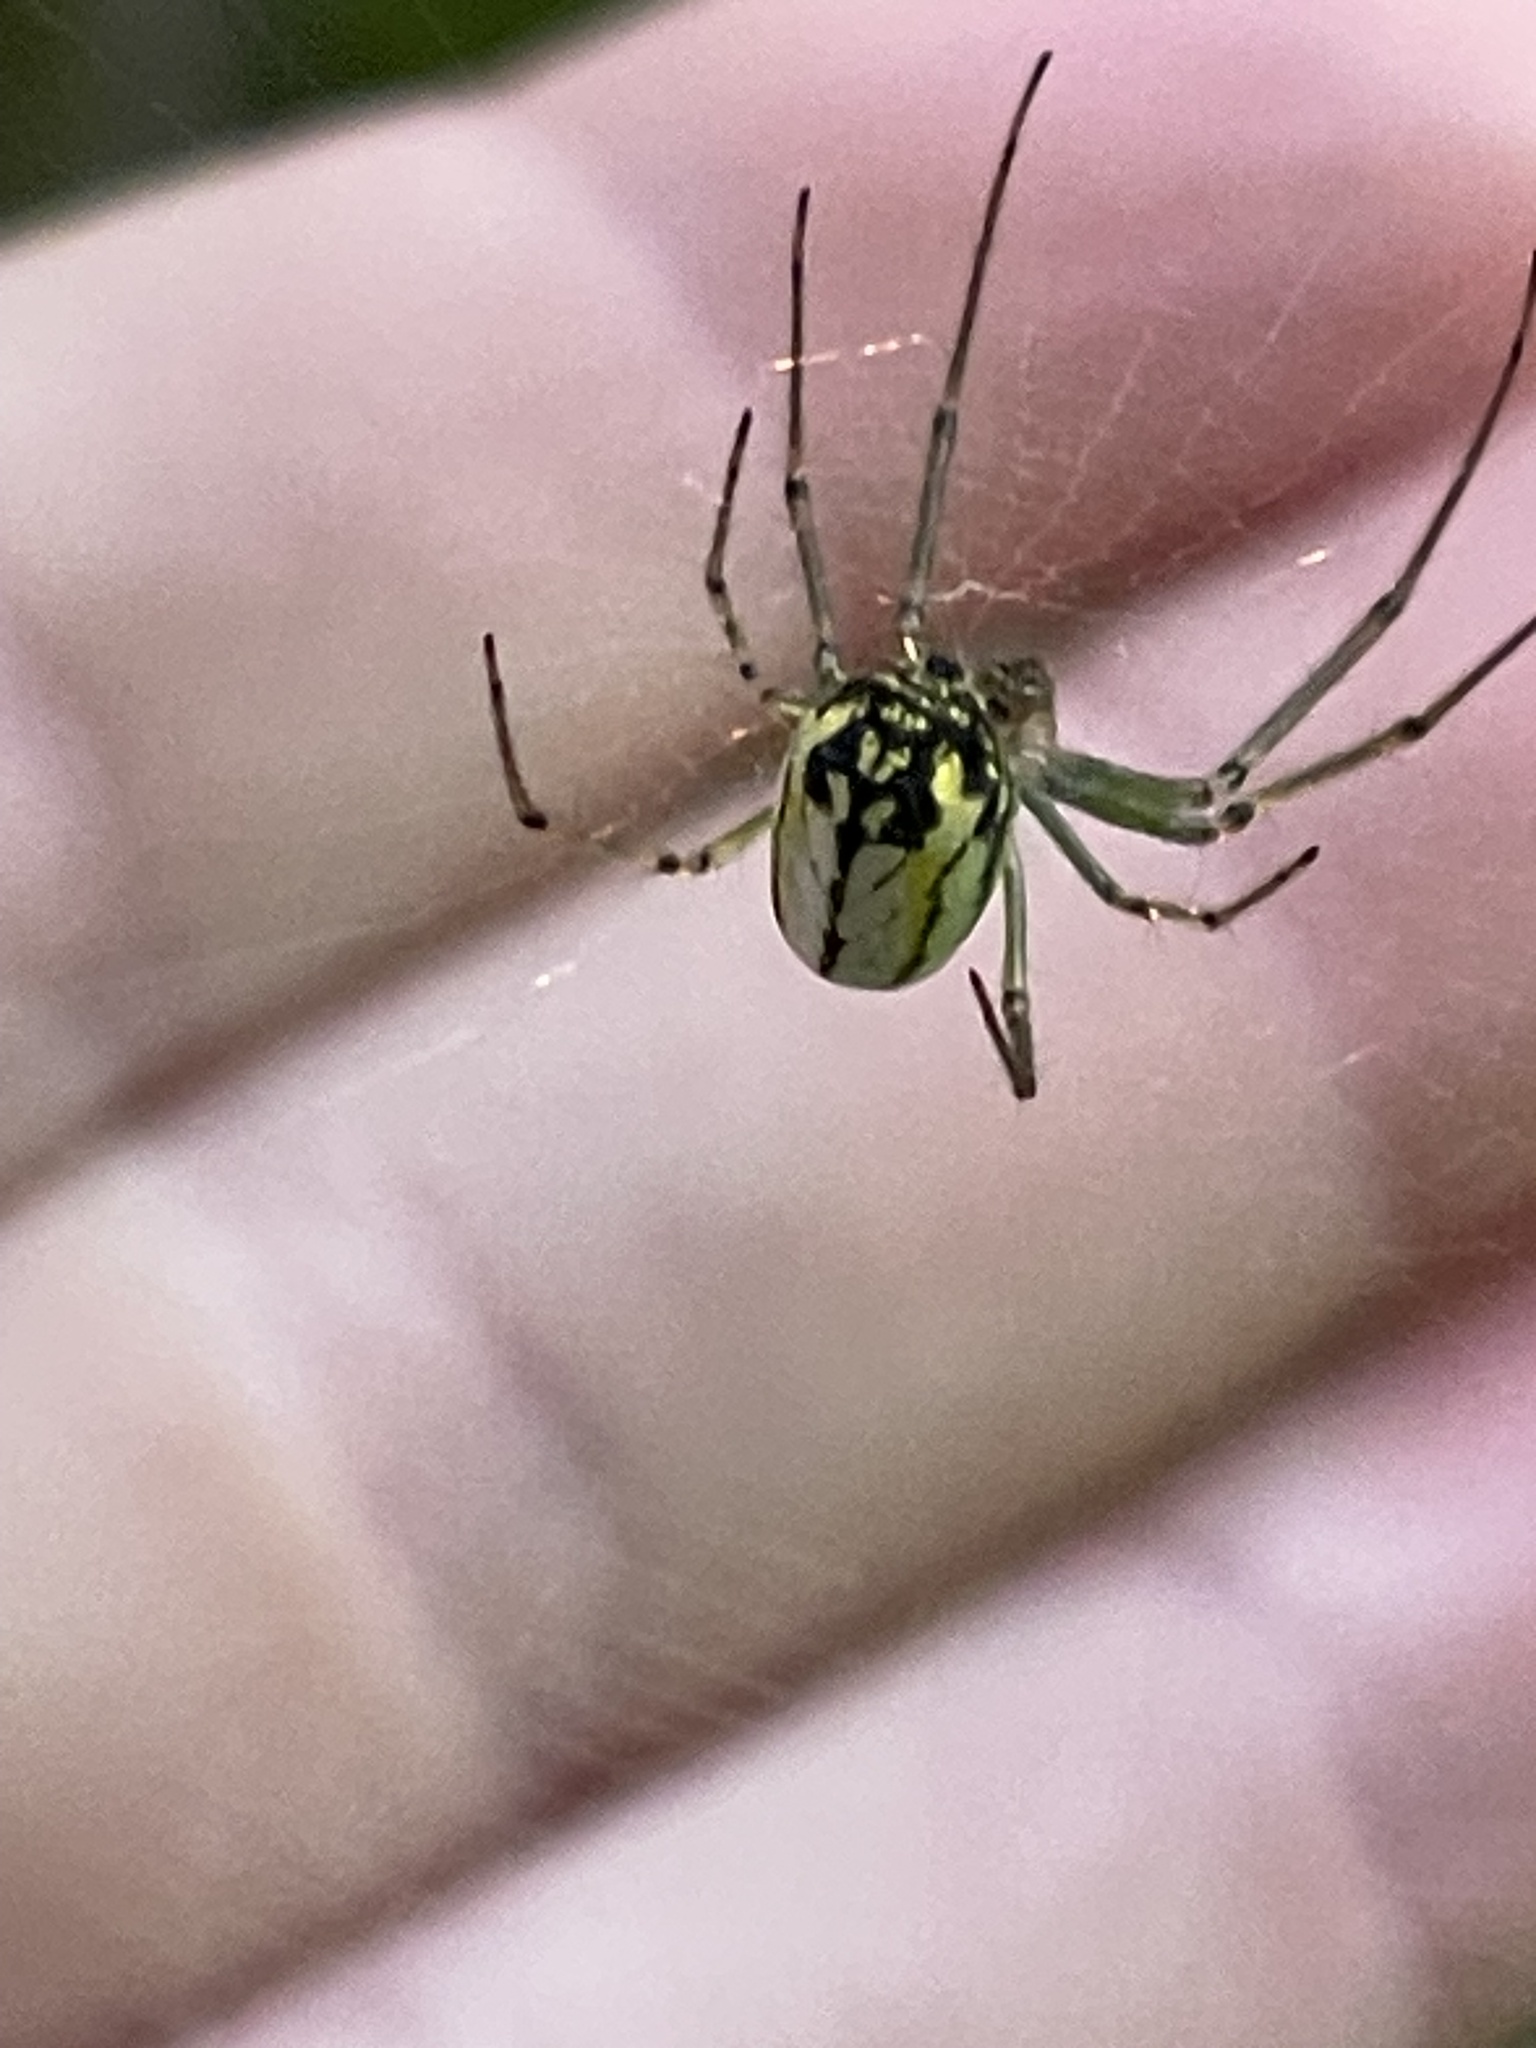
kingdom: Animalia
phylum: Arthropoda
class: Arachnida
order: Araneae
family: Tetragnathidae
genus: Leucauge
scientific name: Leucauge venusta
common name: Longjawed orb weavers
